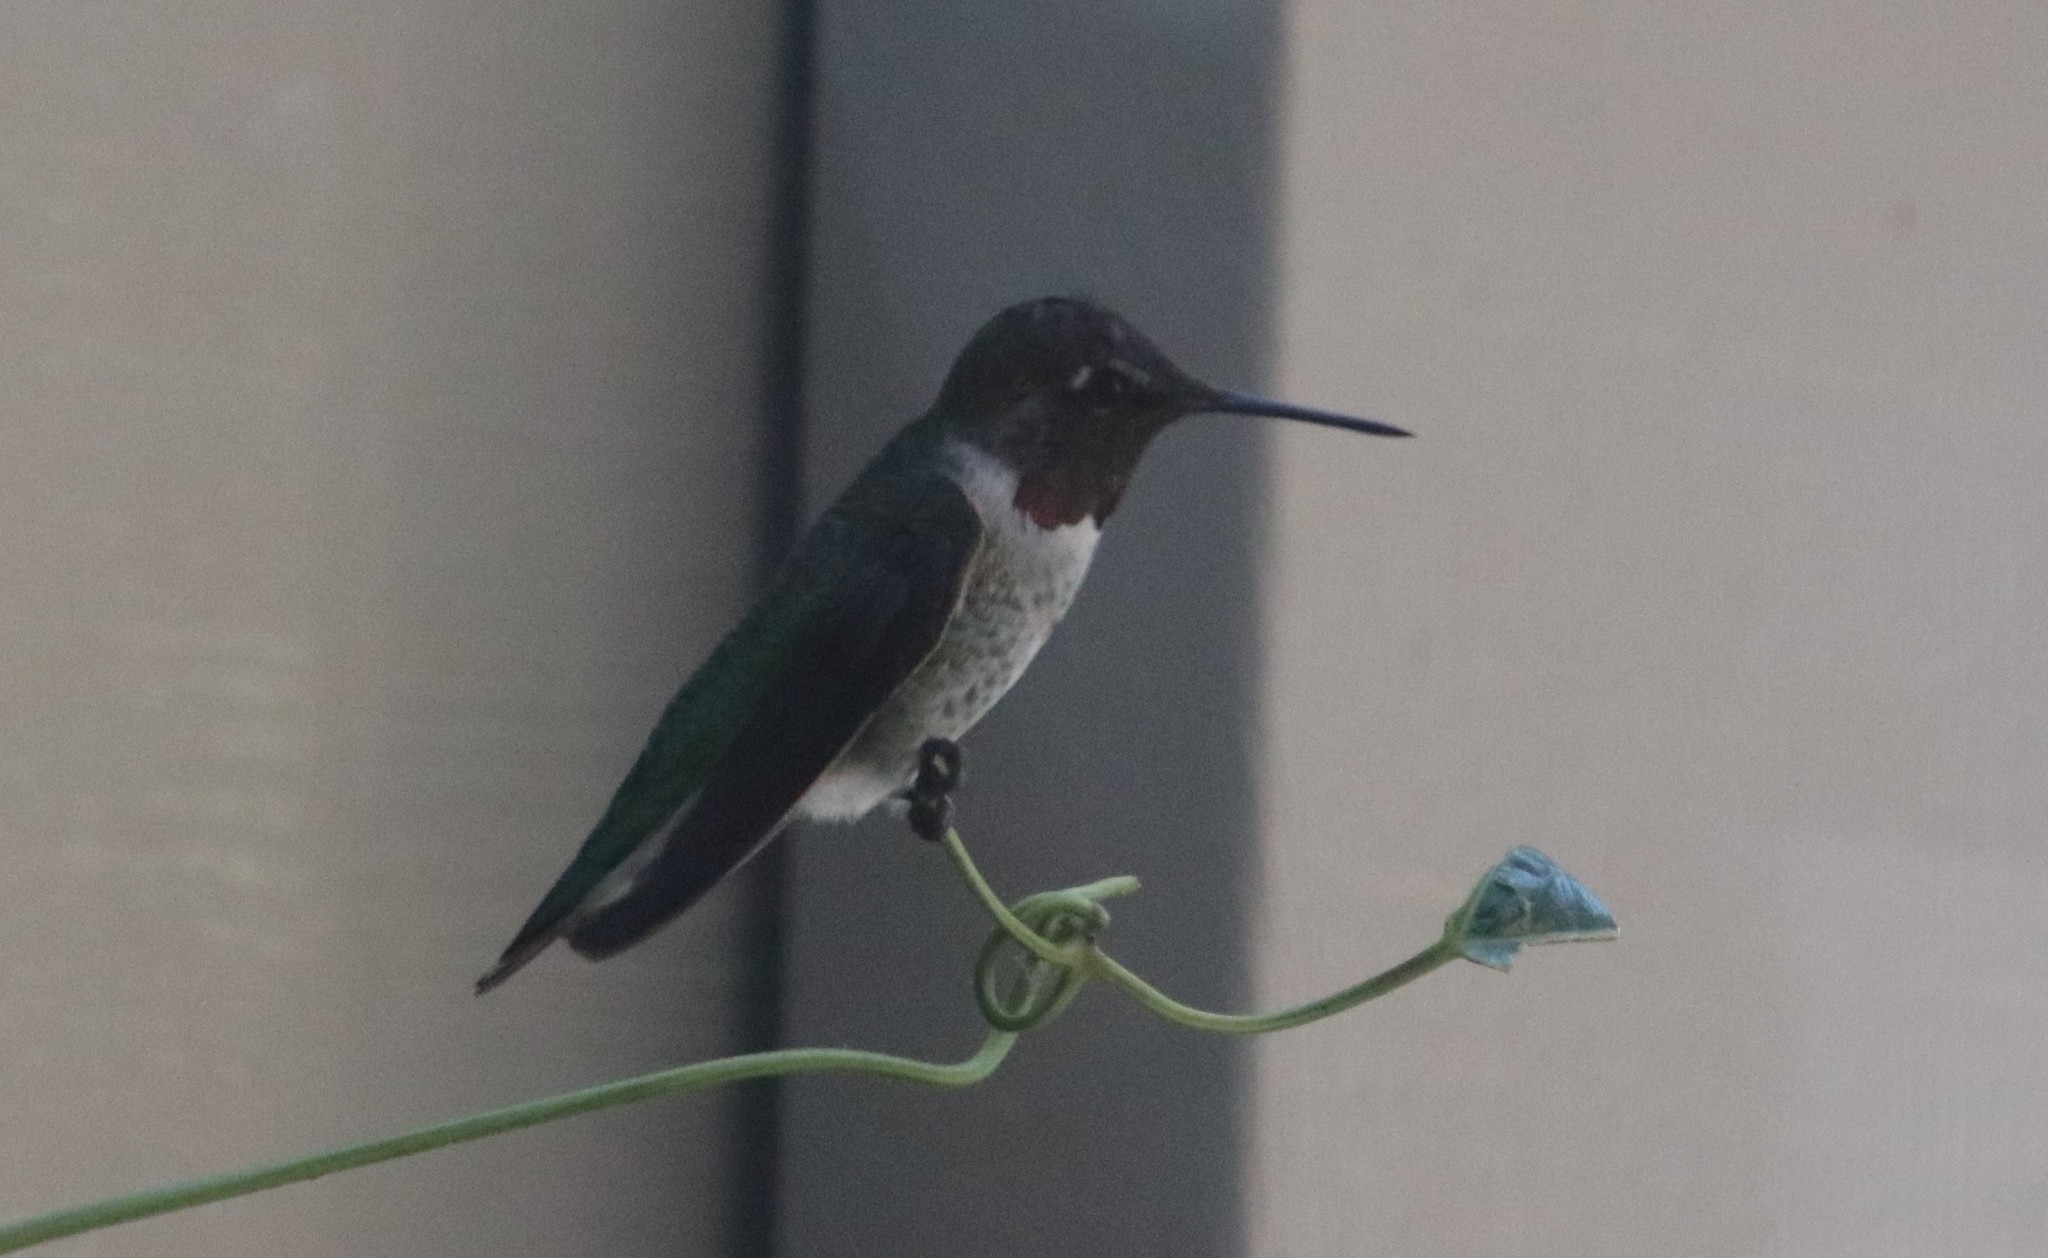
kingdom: Animalia
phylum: Chordata
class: Aves
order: Apodiformes
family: Trochilidae
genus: Calypte
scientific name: Calypte anna
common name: Anna's hummingbird
